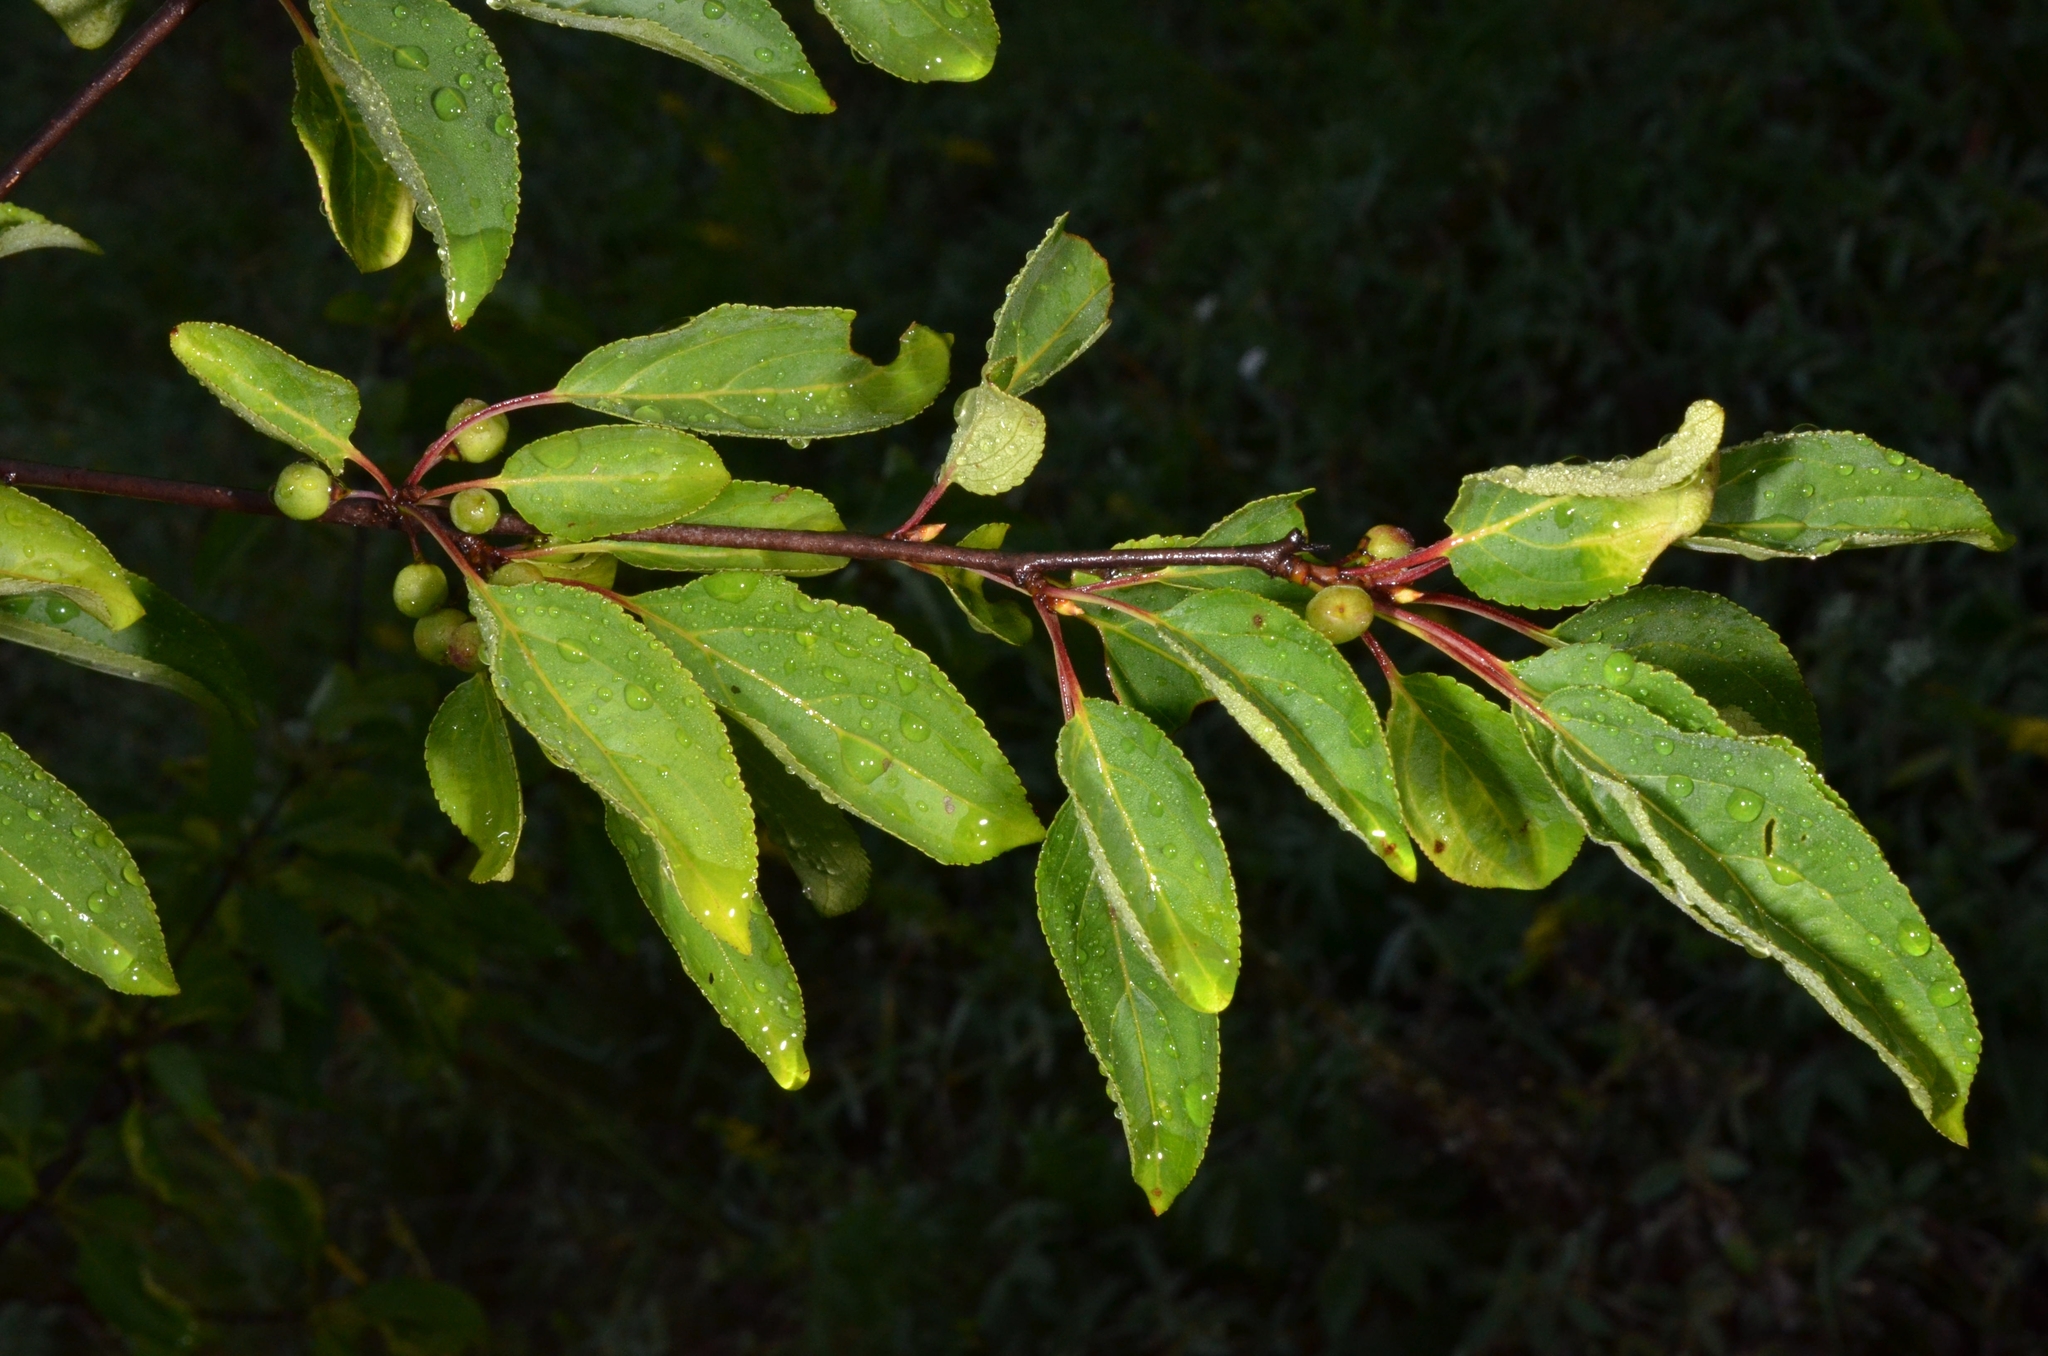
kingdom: Plantae
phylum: Tracheophyta
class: Magnoliopsida
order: Rosales
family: Rhamnaceae
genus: Rhamnus
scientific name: Rhamnus cathartica
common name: Common buckthorn
